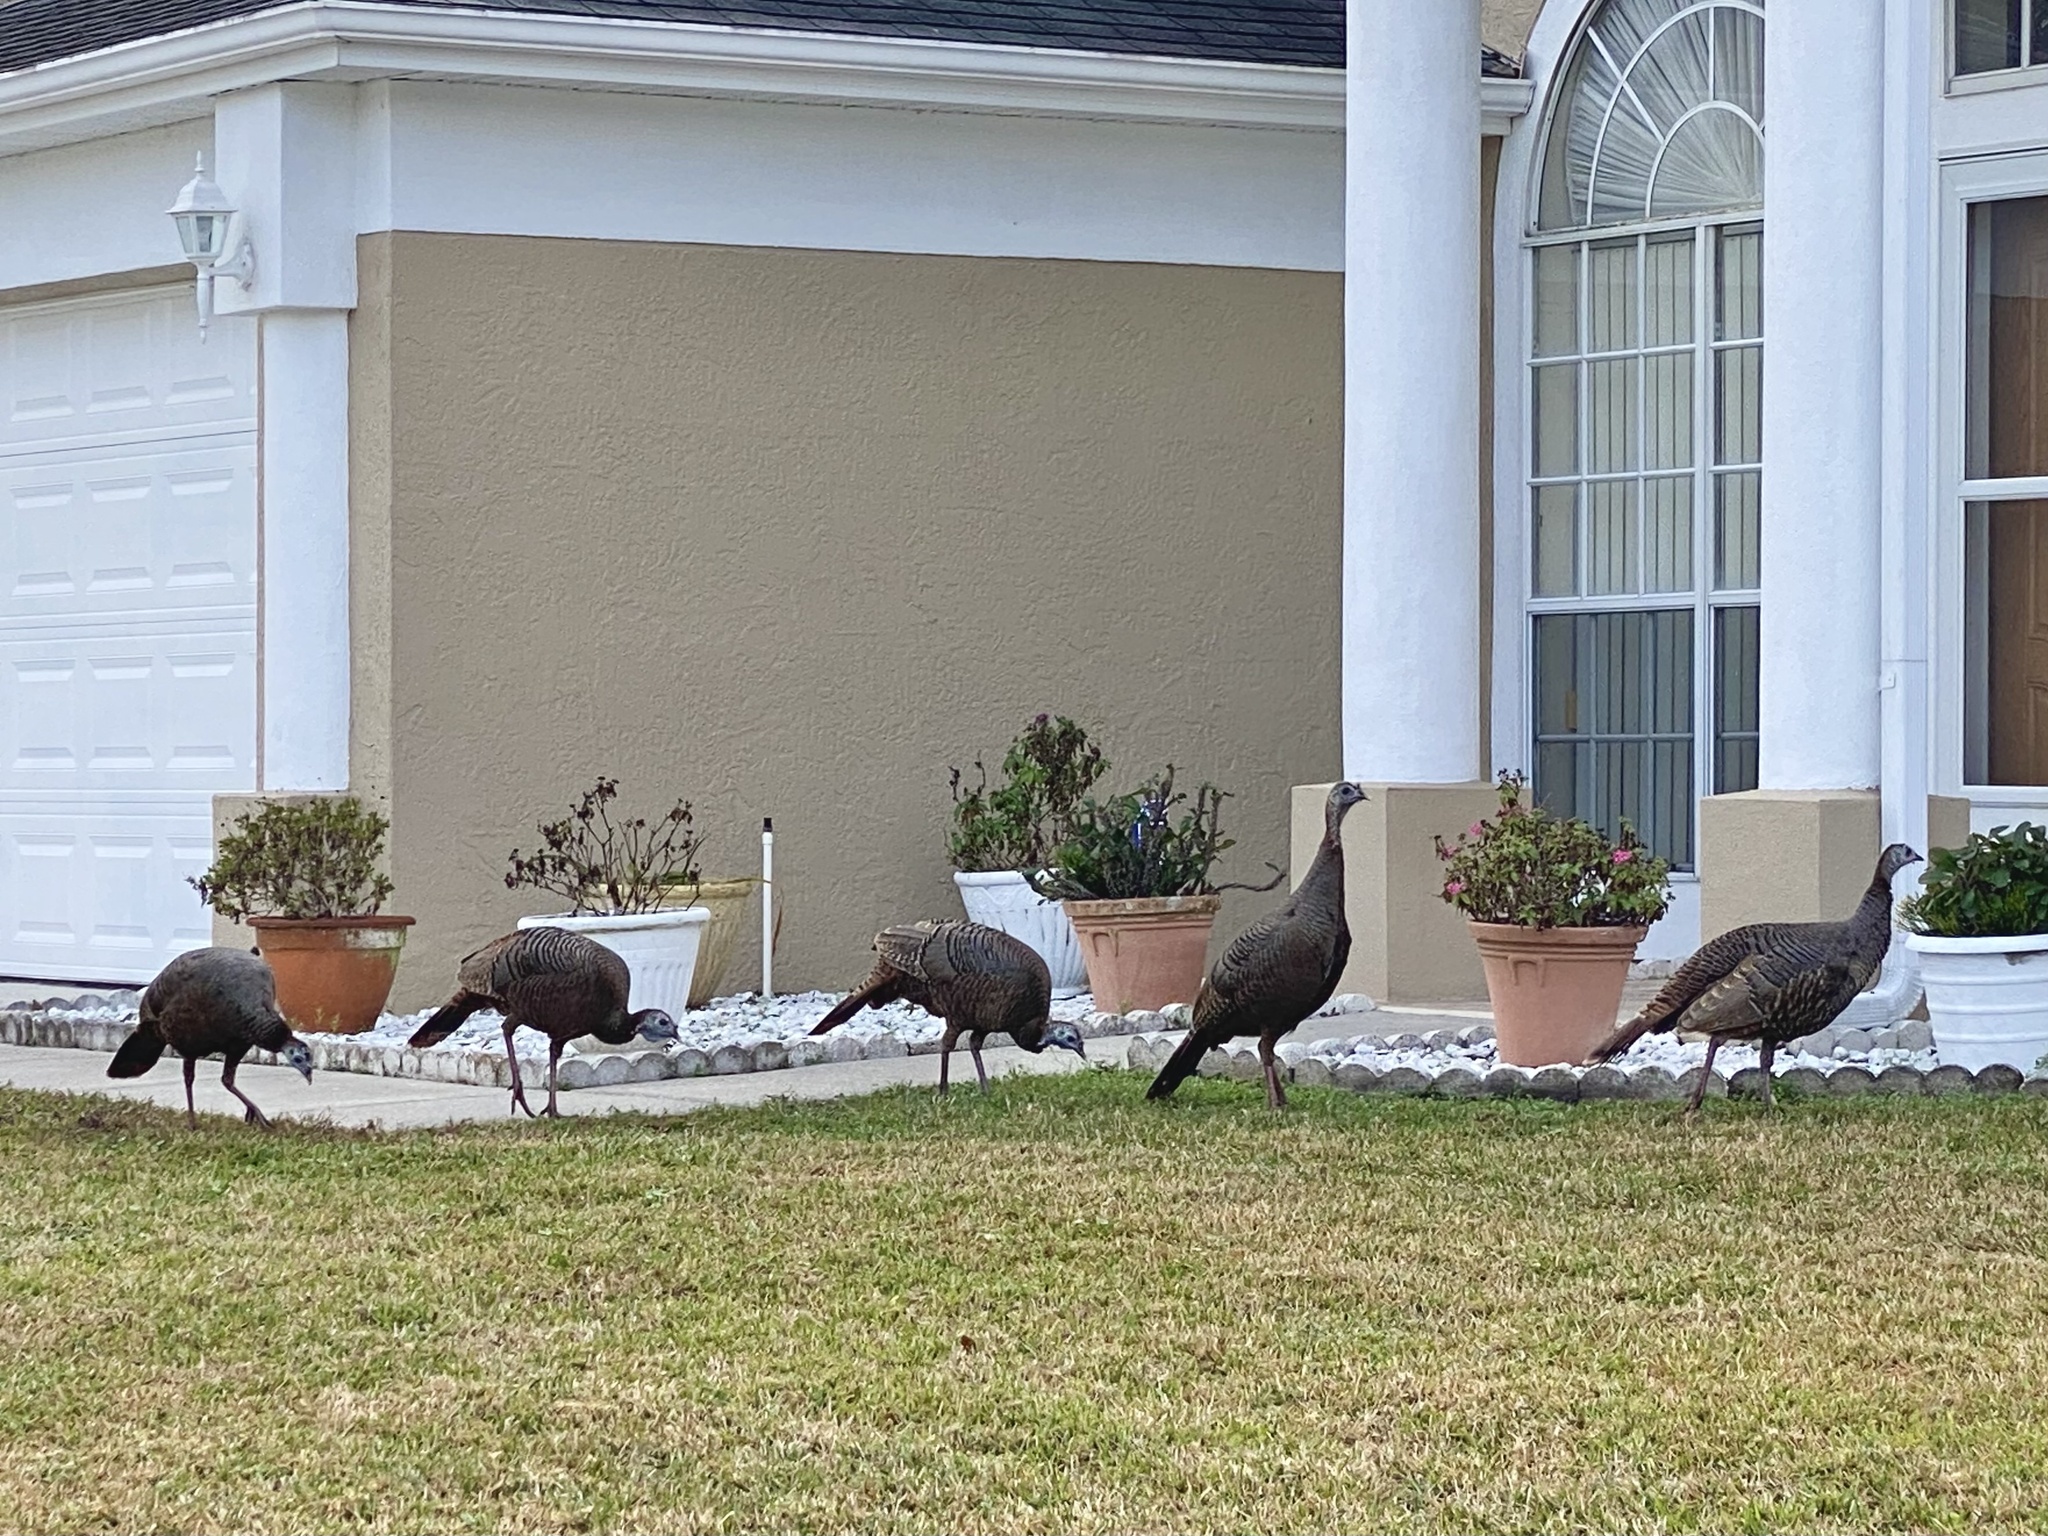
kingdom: Animalia
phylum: Chordata
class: Aves
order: Galliformes
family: Phasianidae
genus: Meleagris
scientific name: Meleagris gallopavo
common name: Wild turkey
